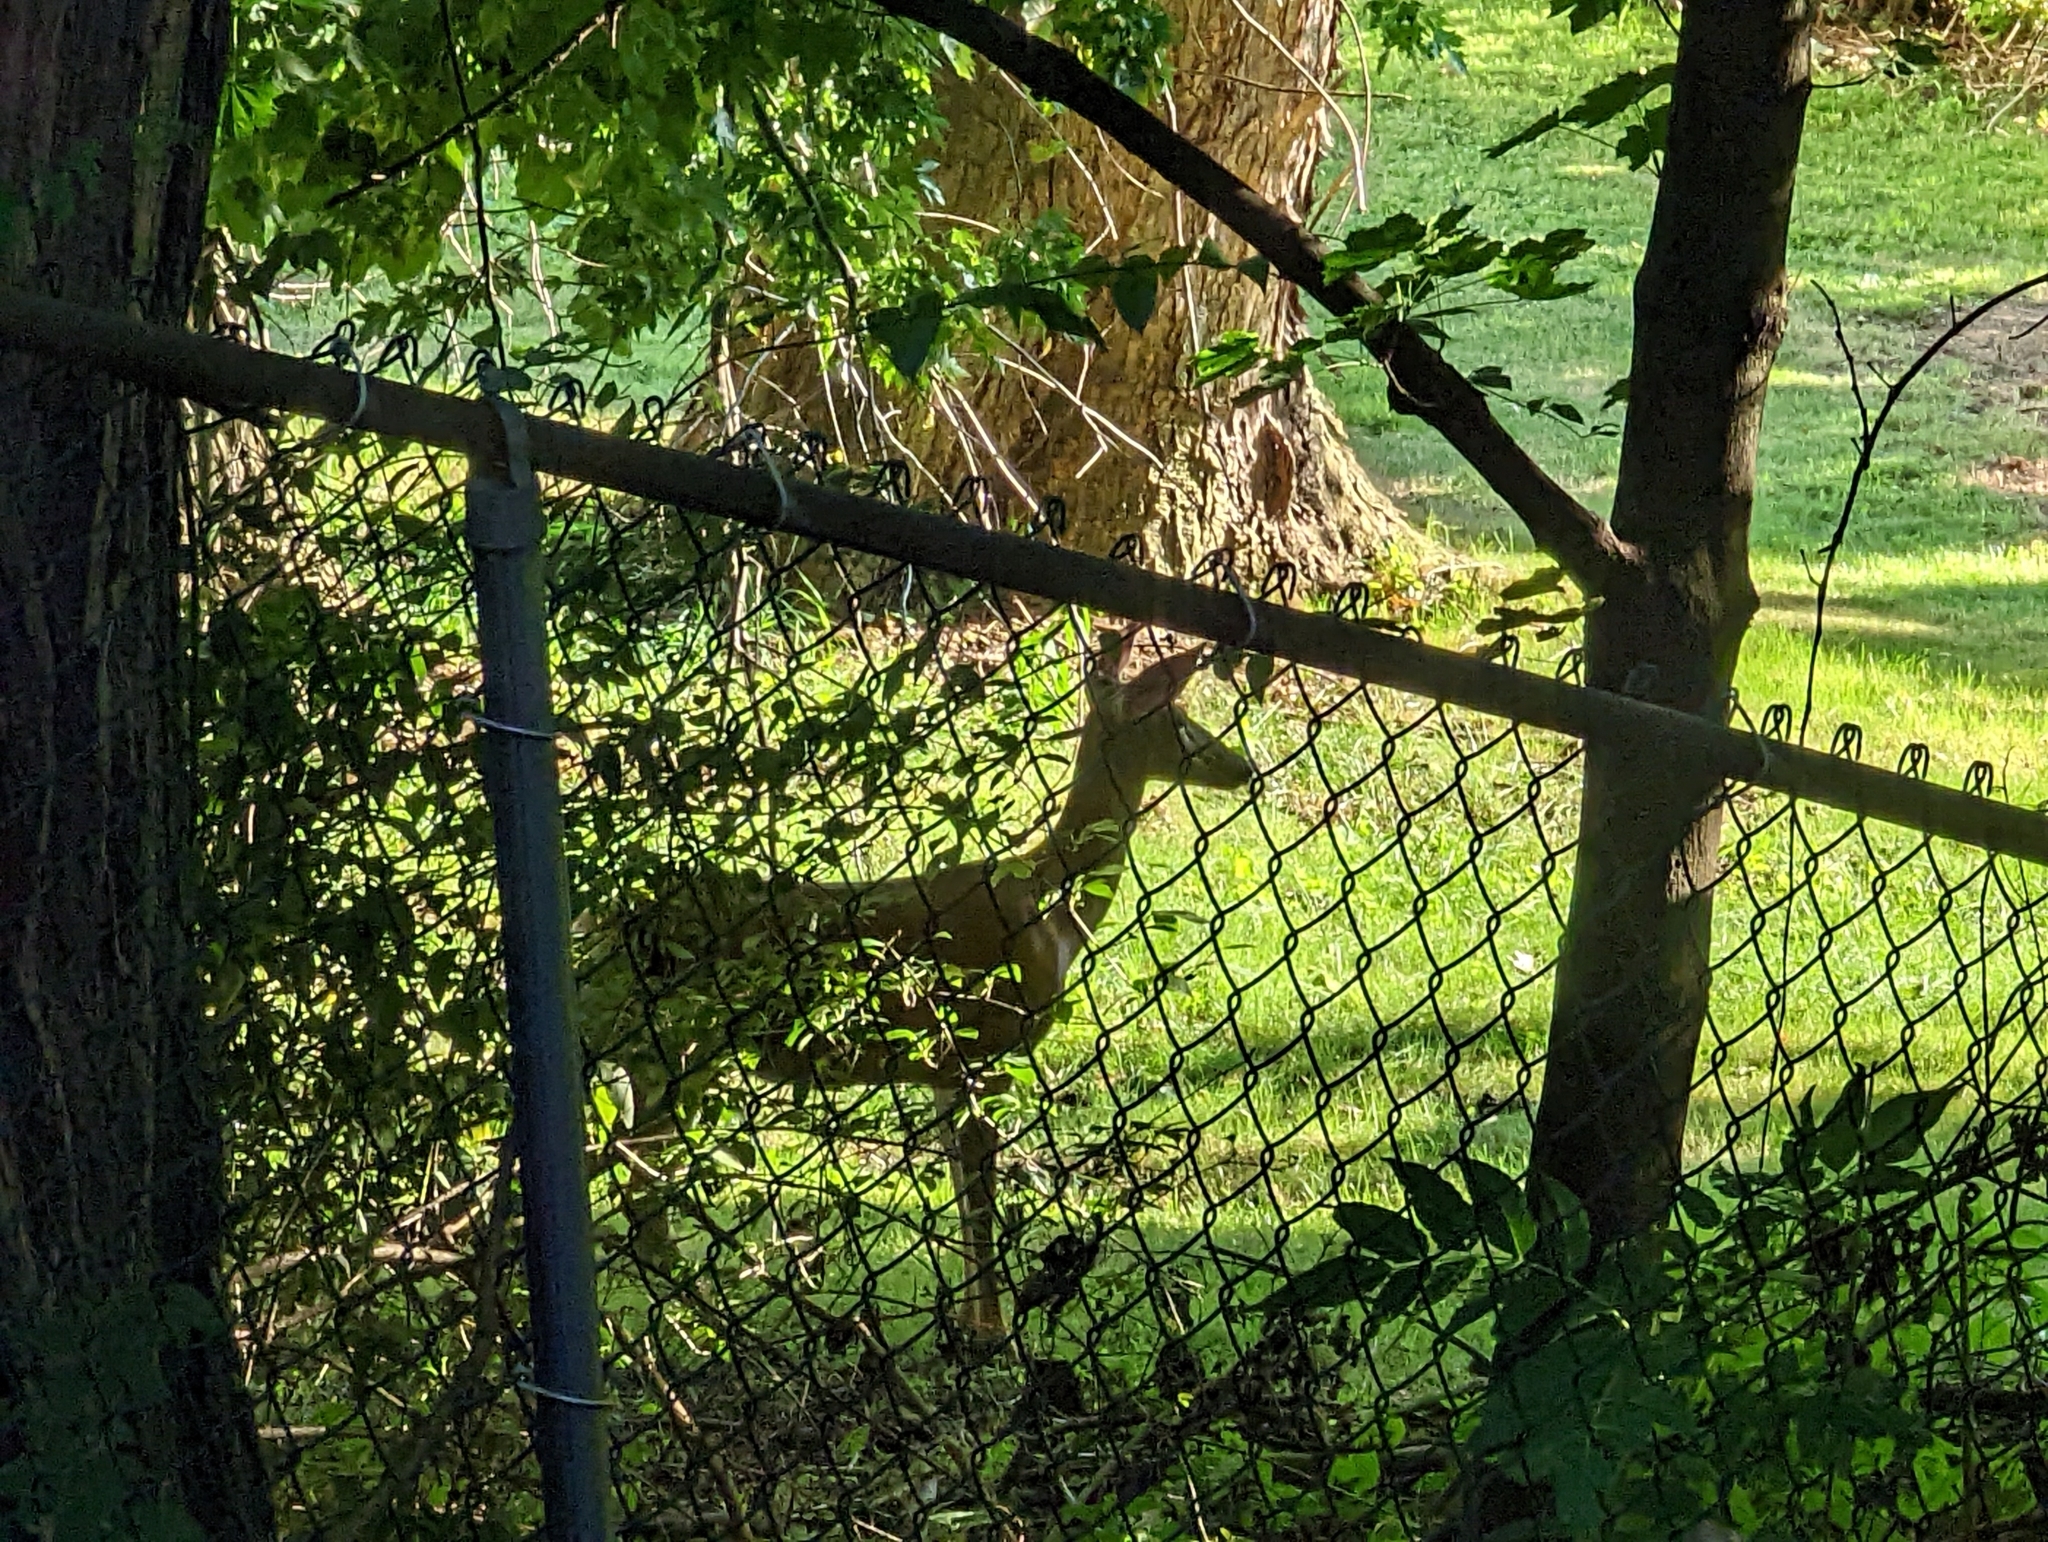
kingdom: Animalia
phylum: Chordata
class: Mammalia
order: Artiodactyla
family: Cervidae
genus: Odocoileus
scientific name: Odocoileus virginianus
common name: White-tailed deer
